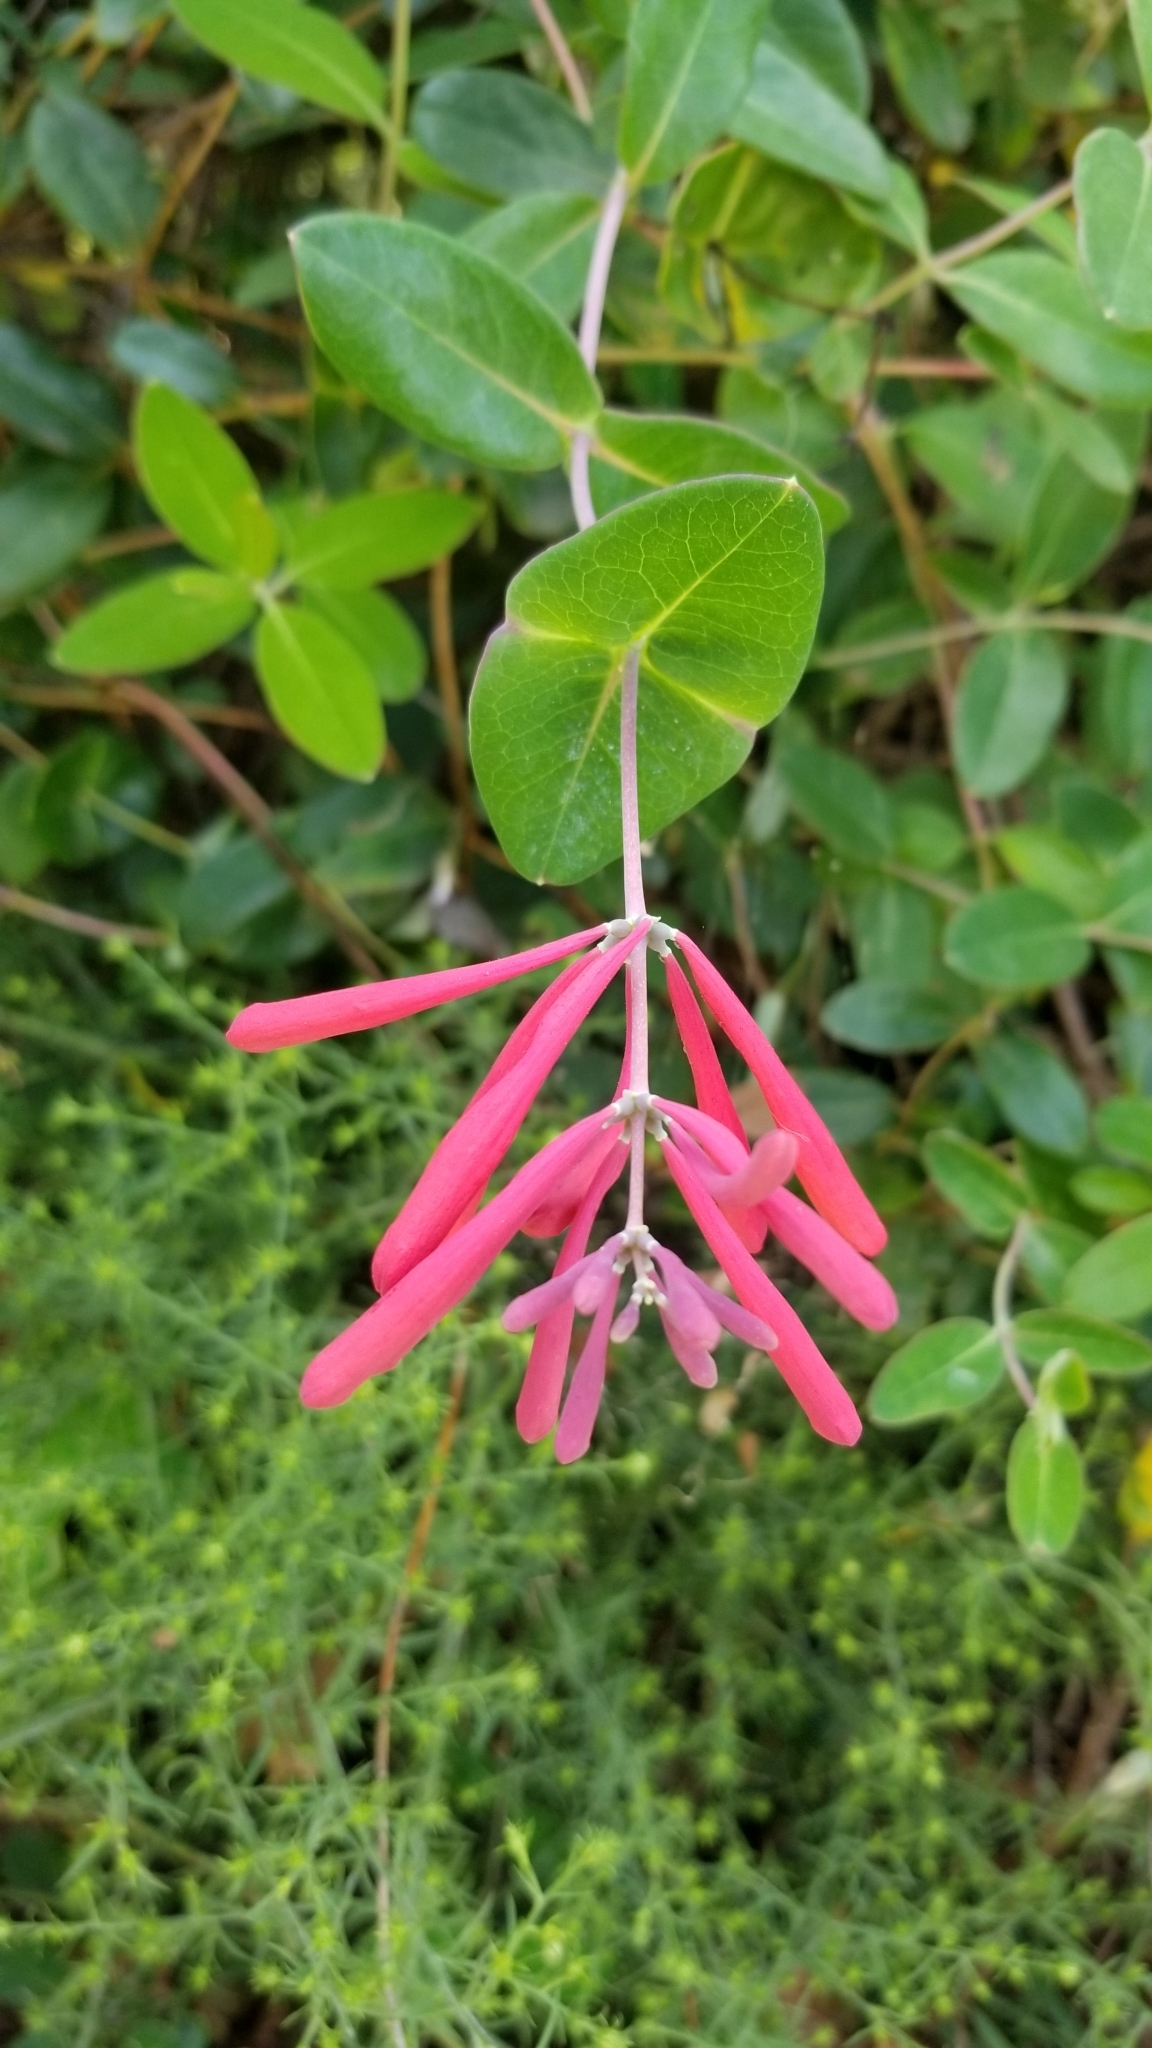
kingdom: Plantae
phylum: Tracheophyta
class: Magnoliopsida
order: Dipsacales
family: Caprifoliaceae
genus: Lonicera
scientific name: Lonicera sempervirens
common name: Coral honeysuckle
